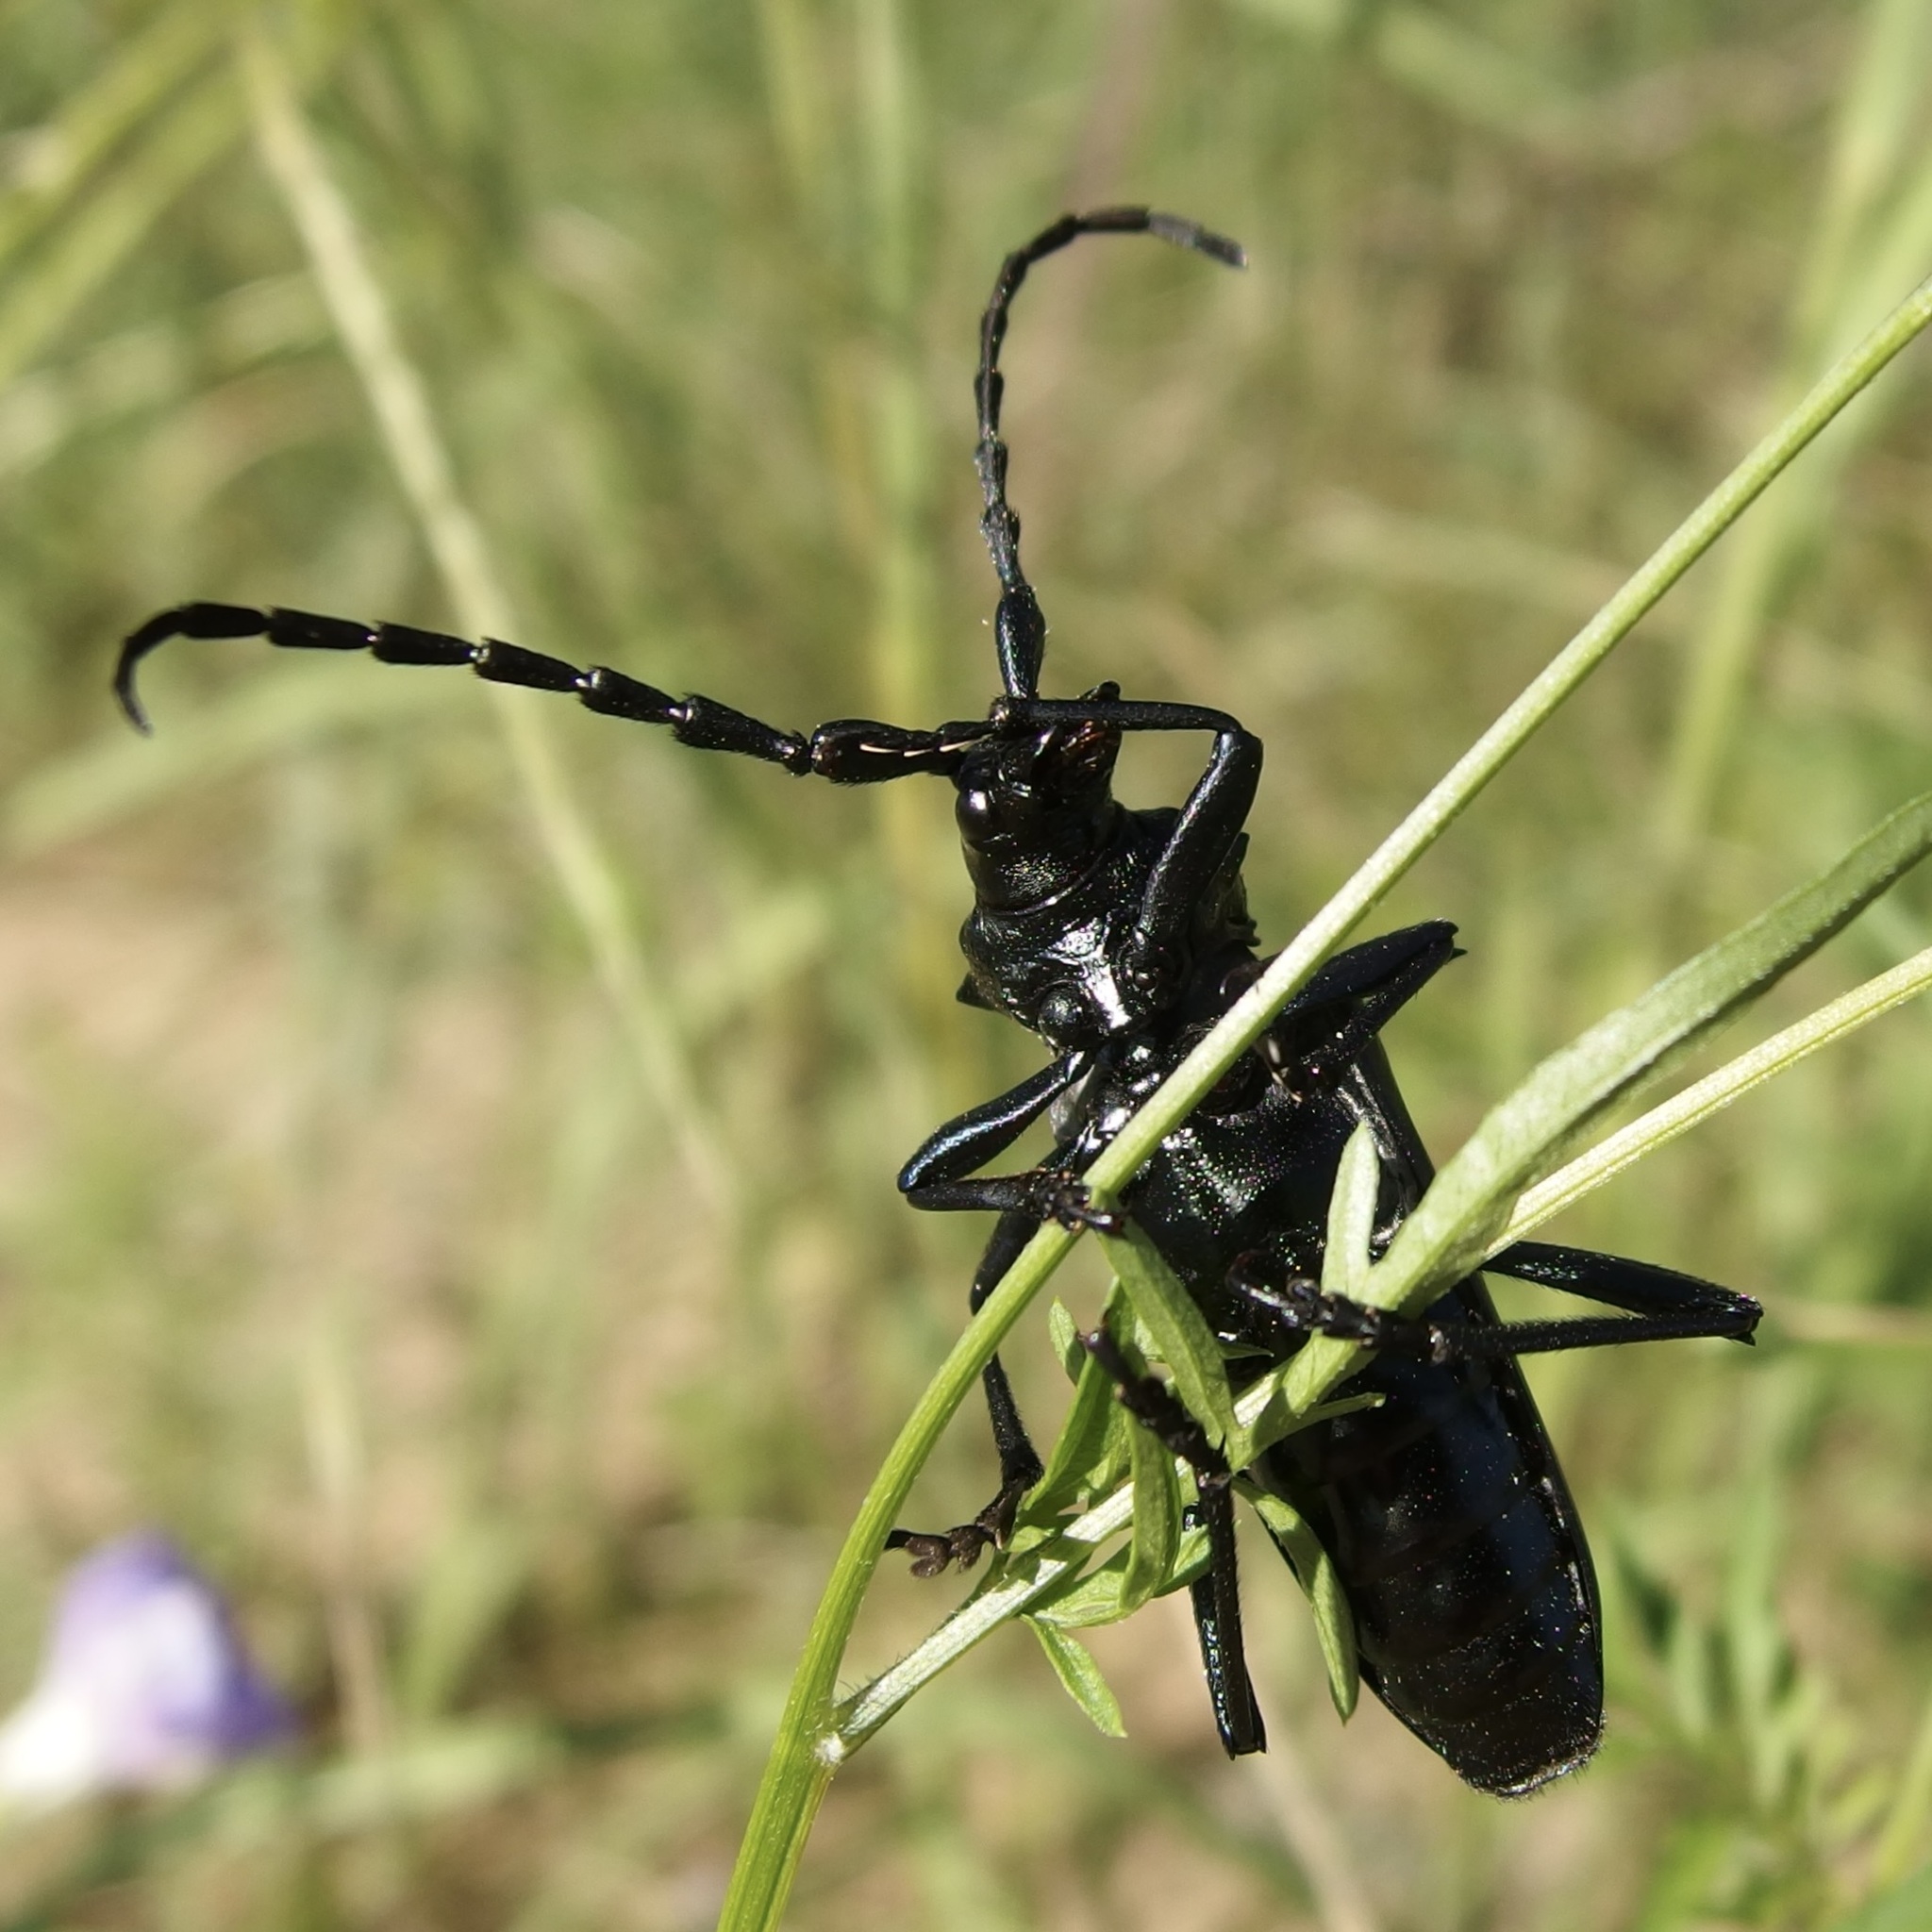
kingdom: Animalia
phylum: Arthropoda
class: Insecta
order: Coleoptera
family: Cerambycidae
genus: Stenaspis
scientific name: Stenaspis solitaria
